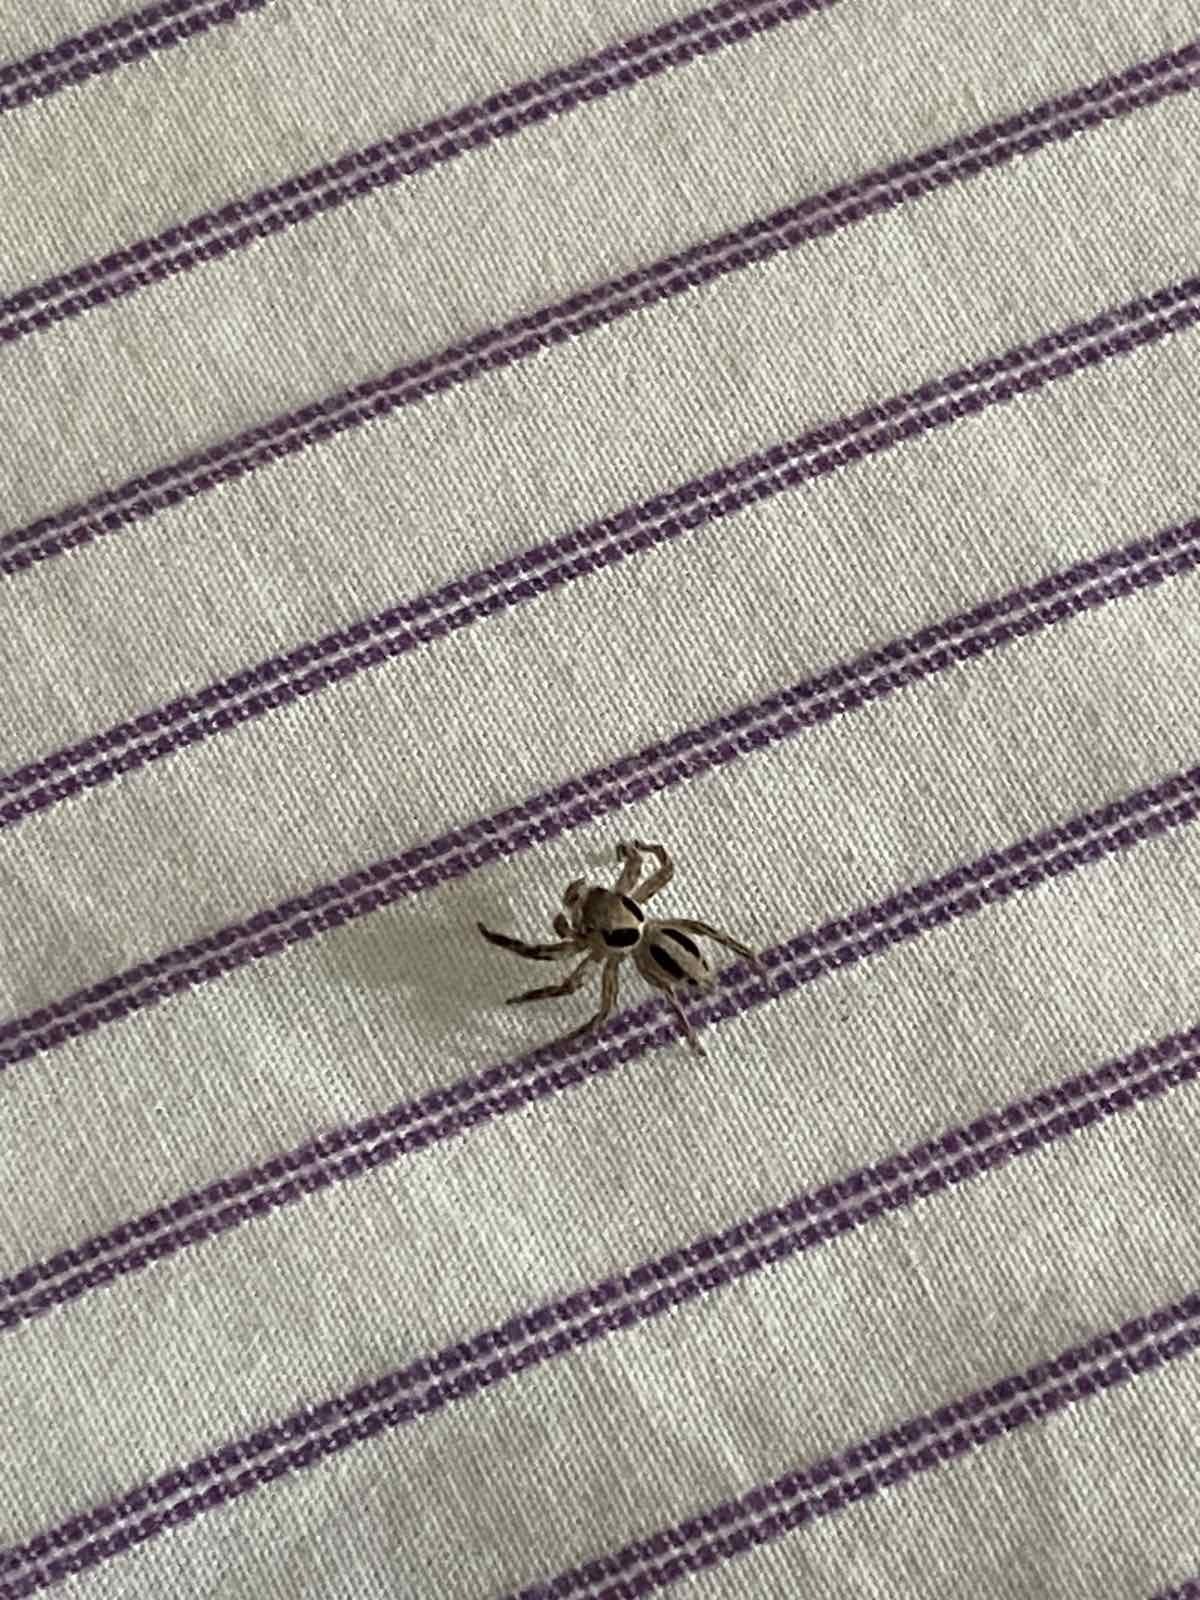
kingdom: Animalia
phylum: Arthropoda
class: Arachnida
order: Araneae
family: Salticidae
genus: Plexippus
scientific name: Plexippus petersi
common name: Jumping spider
